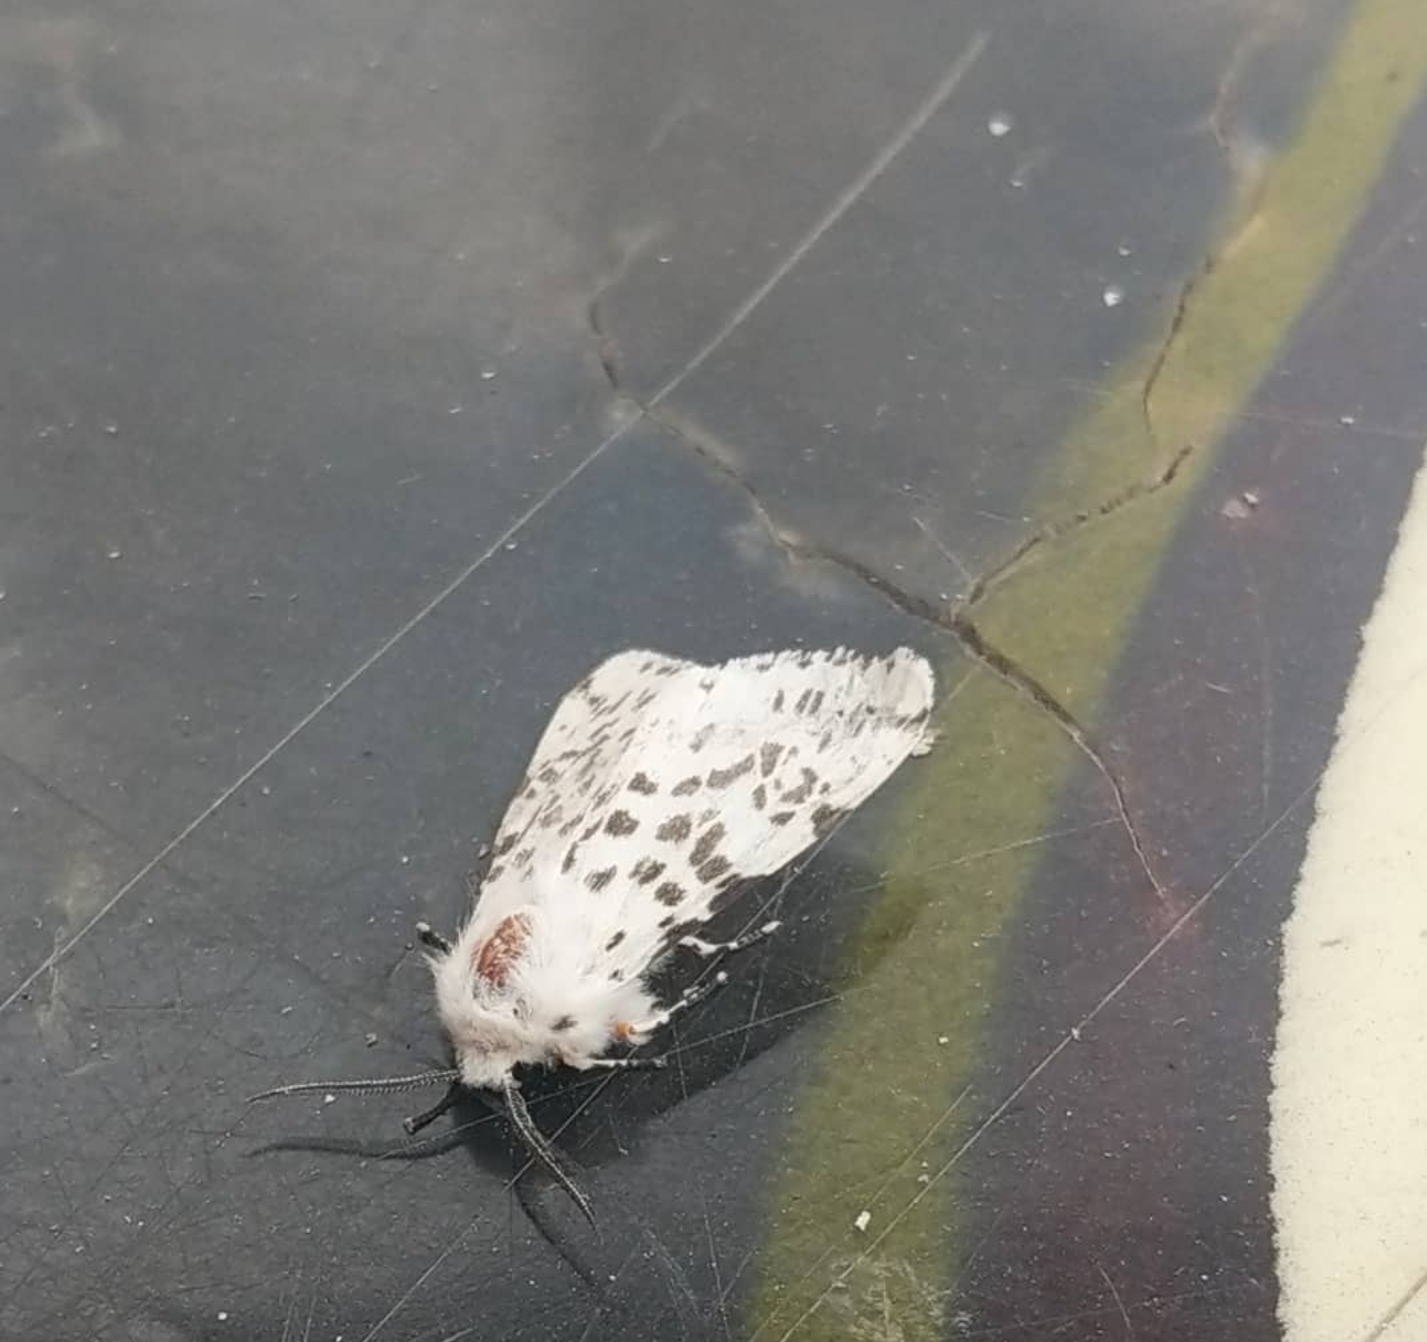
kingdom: Animalia
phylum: Arthropoda
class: Insecta
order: Lepidoptera
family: Erebidae
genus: Hyphantria
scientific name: Hyphantria cunea
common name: American white moth
